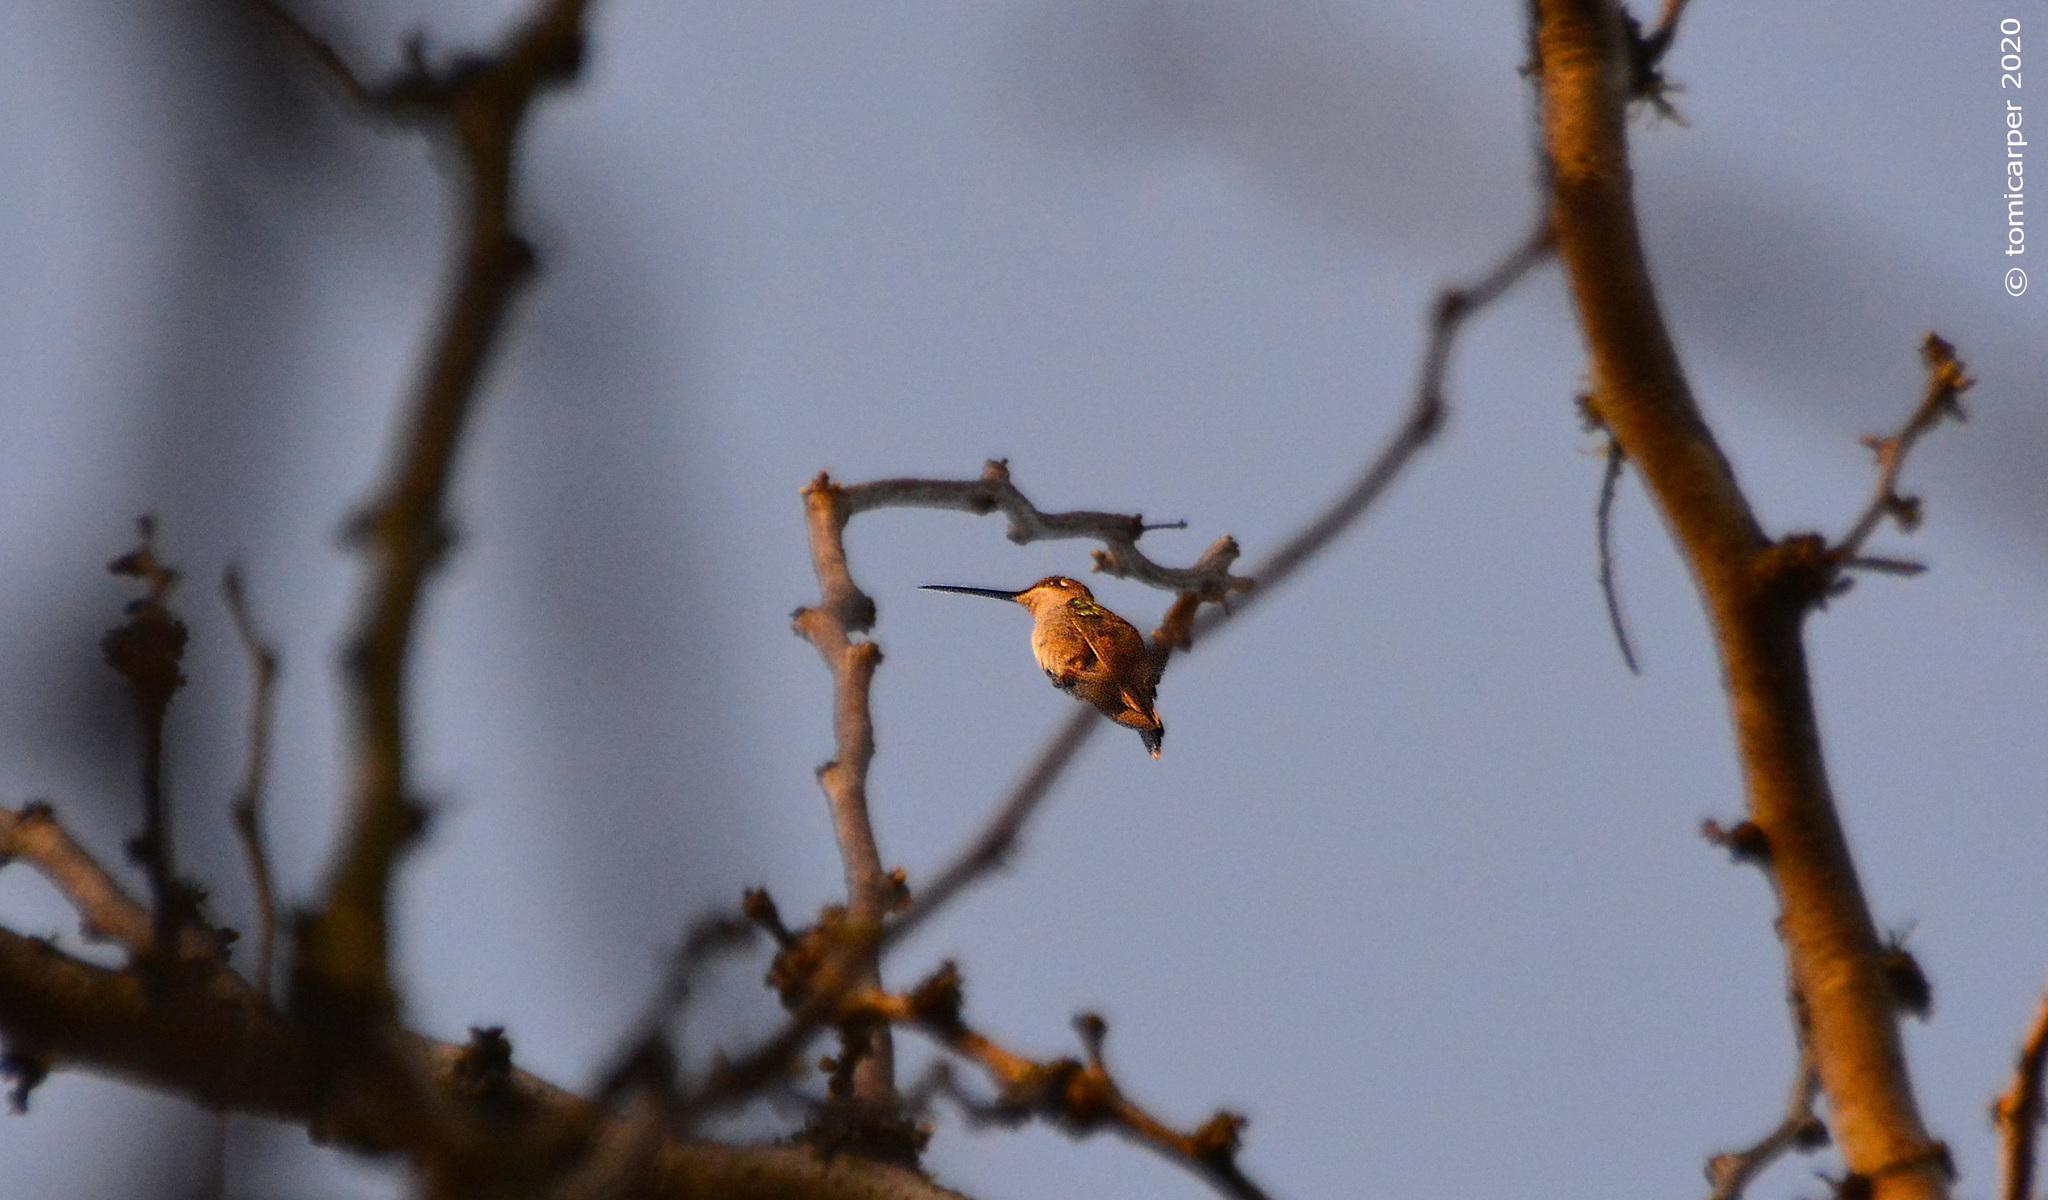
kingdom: Animalia
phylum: Chordata
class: Aves
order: Apodiformes
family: Trochilidae
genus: Heliomaster
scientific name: Heliomaster furcifer
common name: Blue-tufted starthroat
